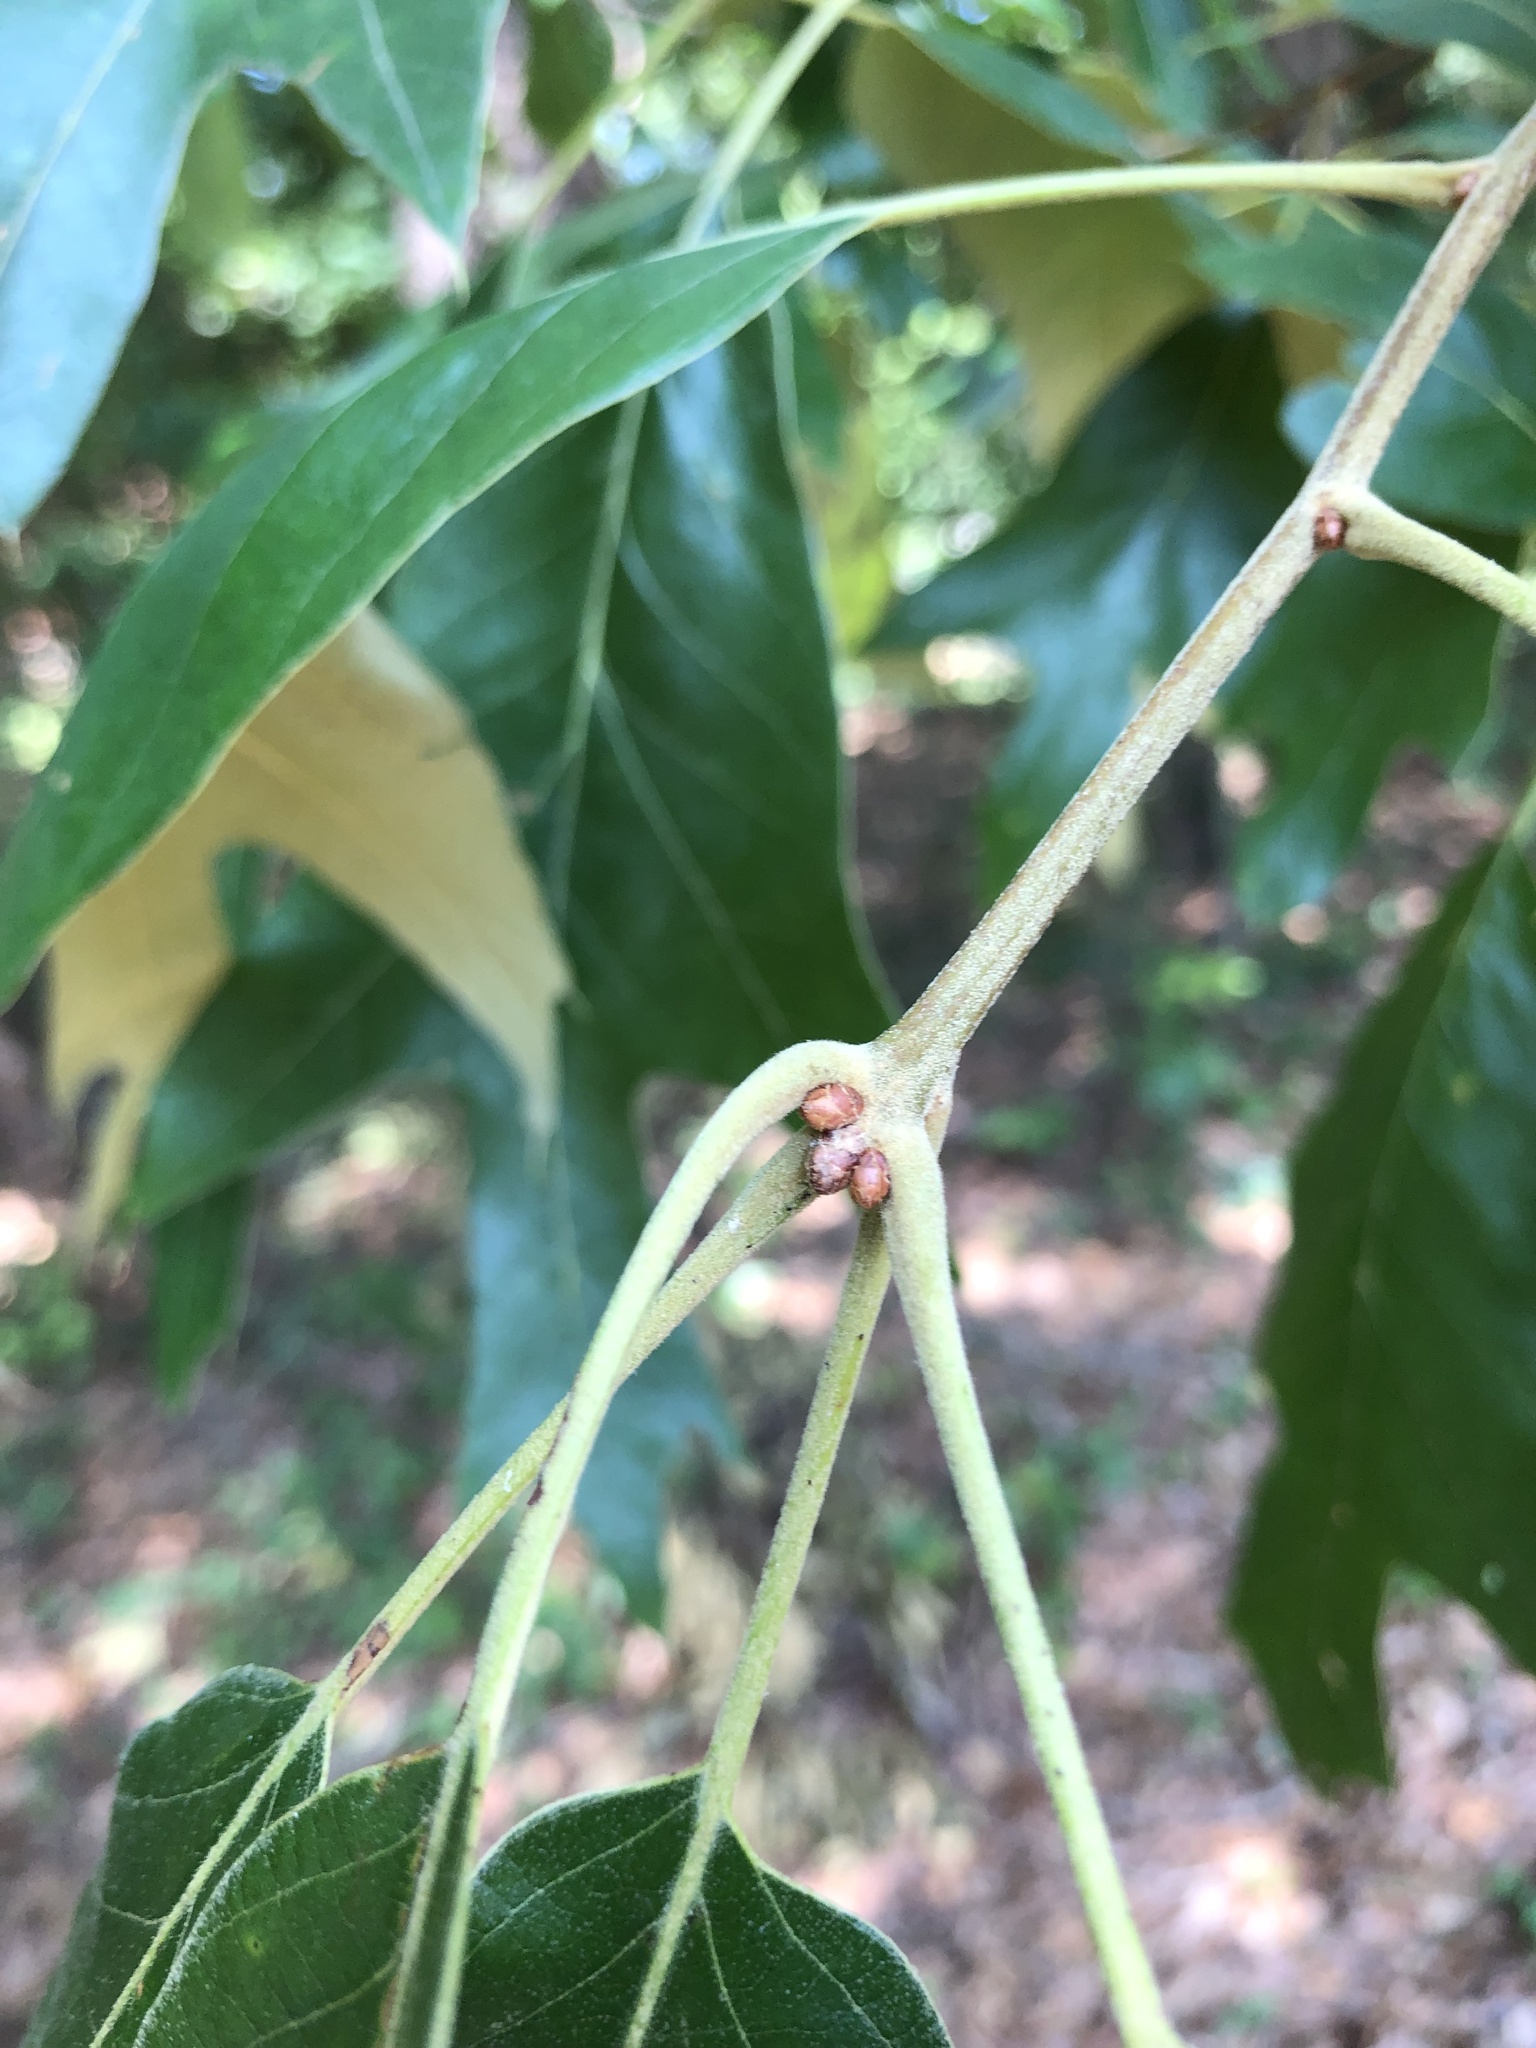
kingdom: Plantae
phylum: Tracheophyta
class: Magnoliopsida
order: Fagales
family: Fagaceae
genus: Quercus
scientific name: Quercus falcata
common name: Southern red oak
